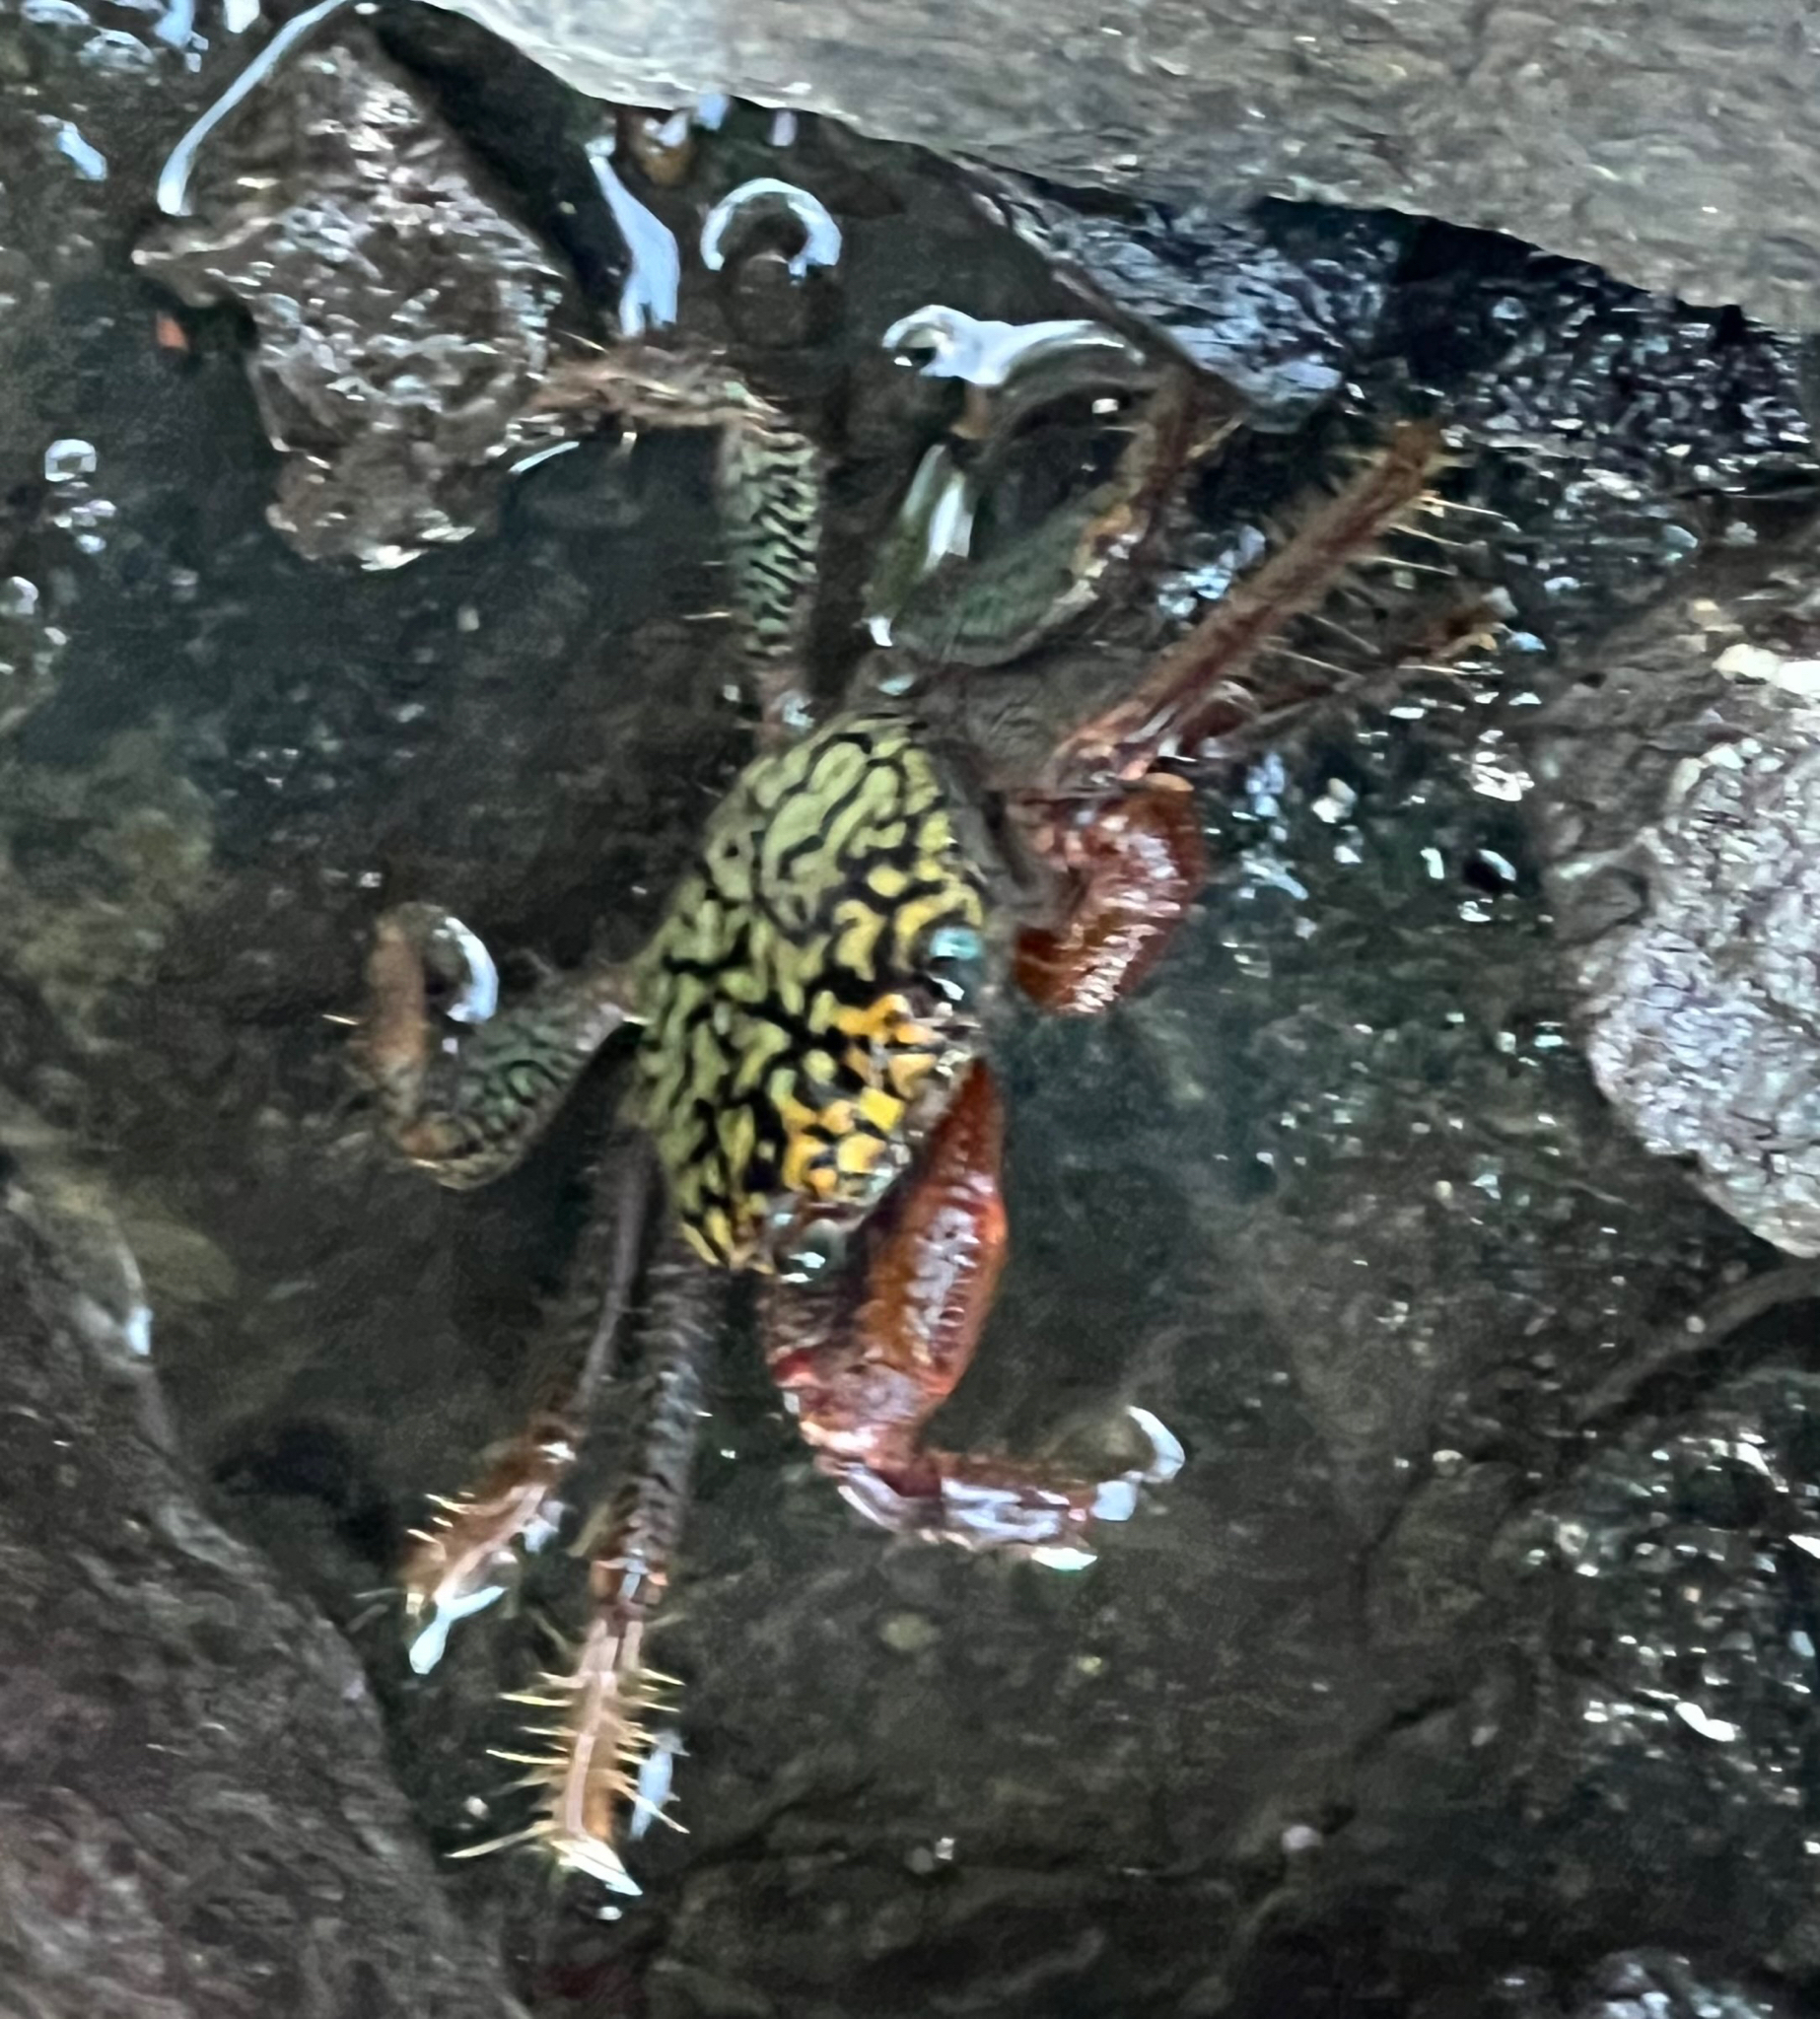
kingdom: Animalia
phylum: Arthropoda
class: Malacostraca
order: Decapoda
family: Grapsidae
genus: Geograpsus
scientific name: Geograpsus lividus
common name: Variegate shore crab
